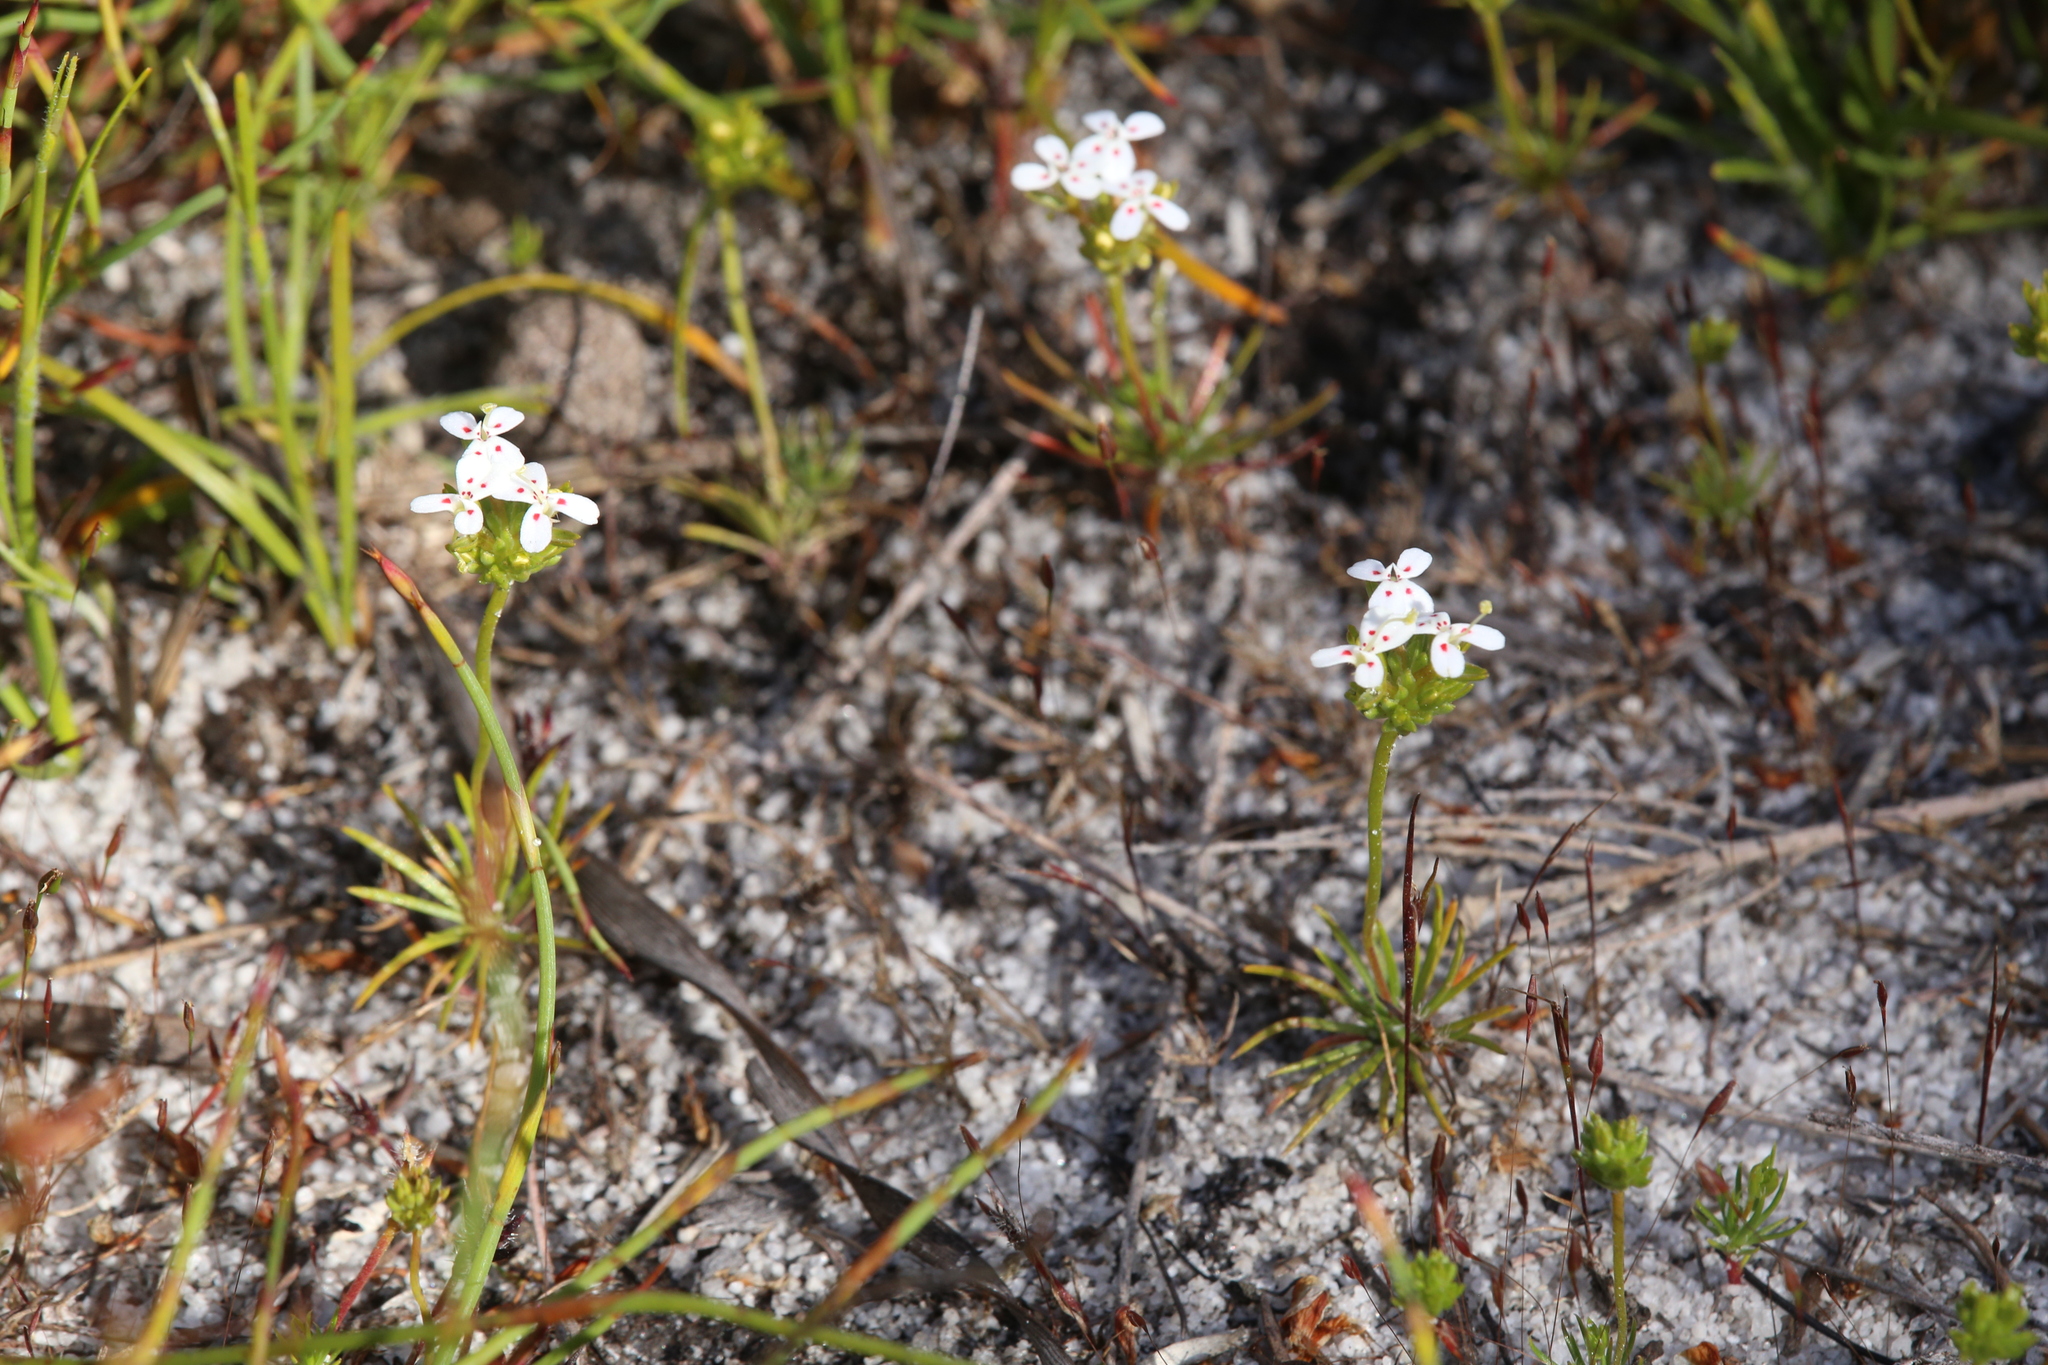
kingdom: Plantae
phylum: Tracheophyta
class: Magnoliopsida
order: Asterales
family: Stylidiaceae
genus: Stylidium
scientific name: Stylidium guttatum
